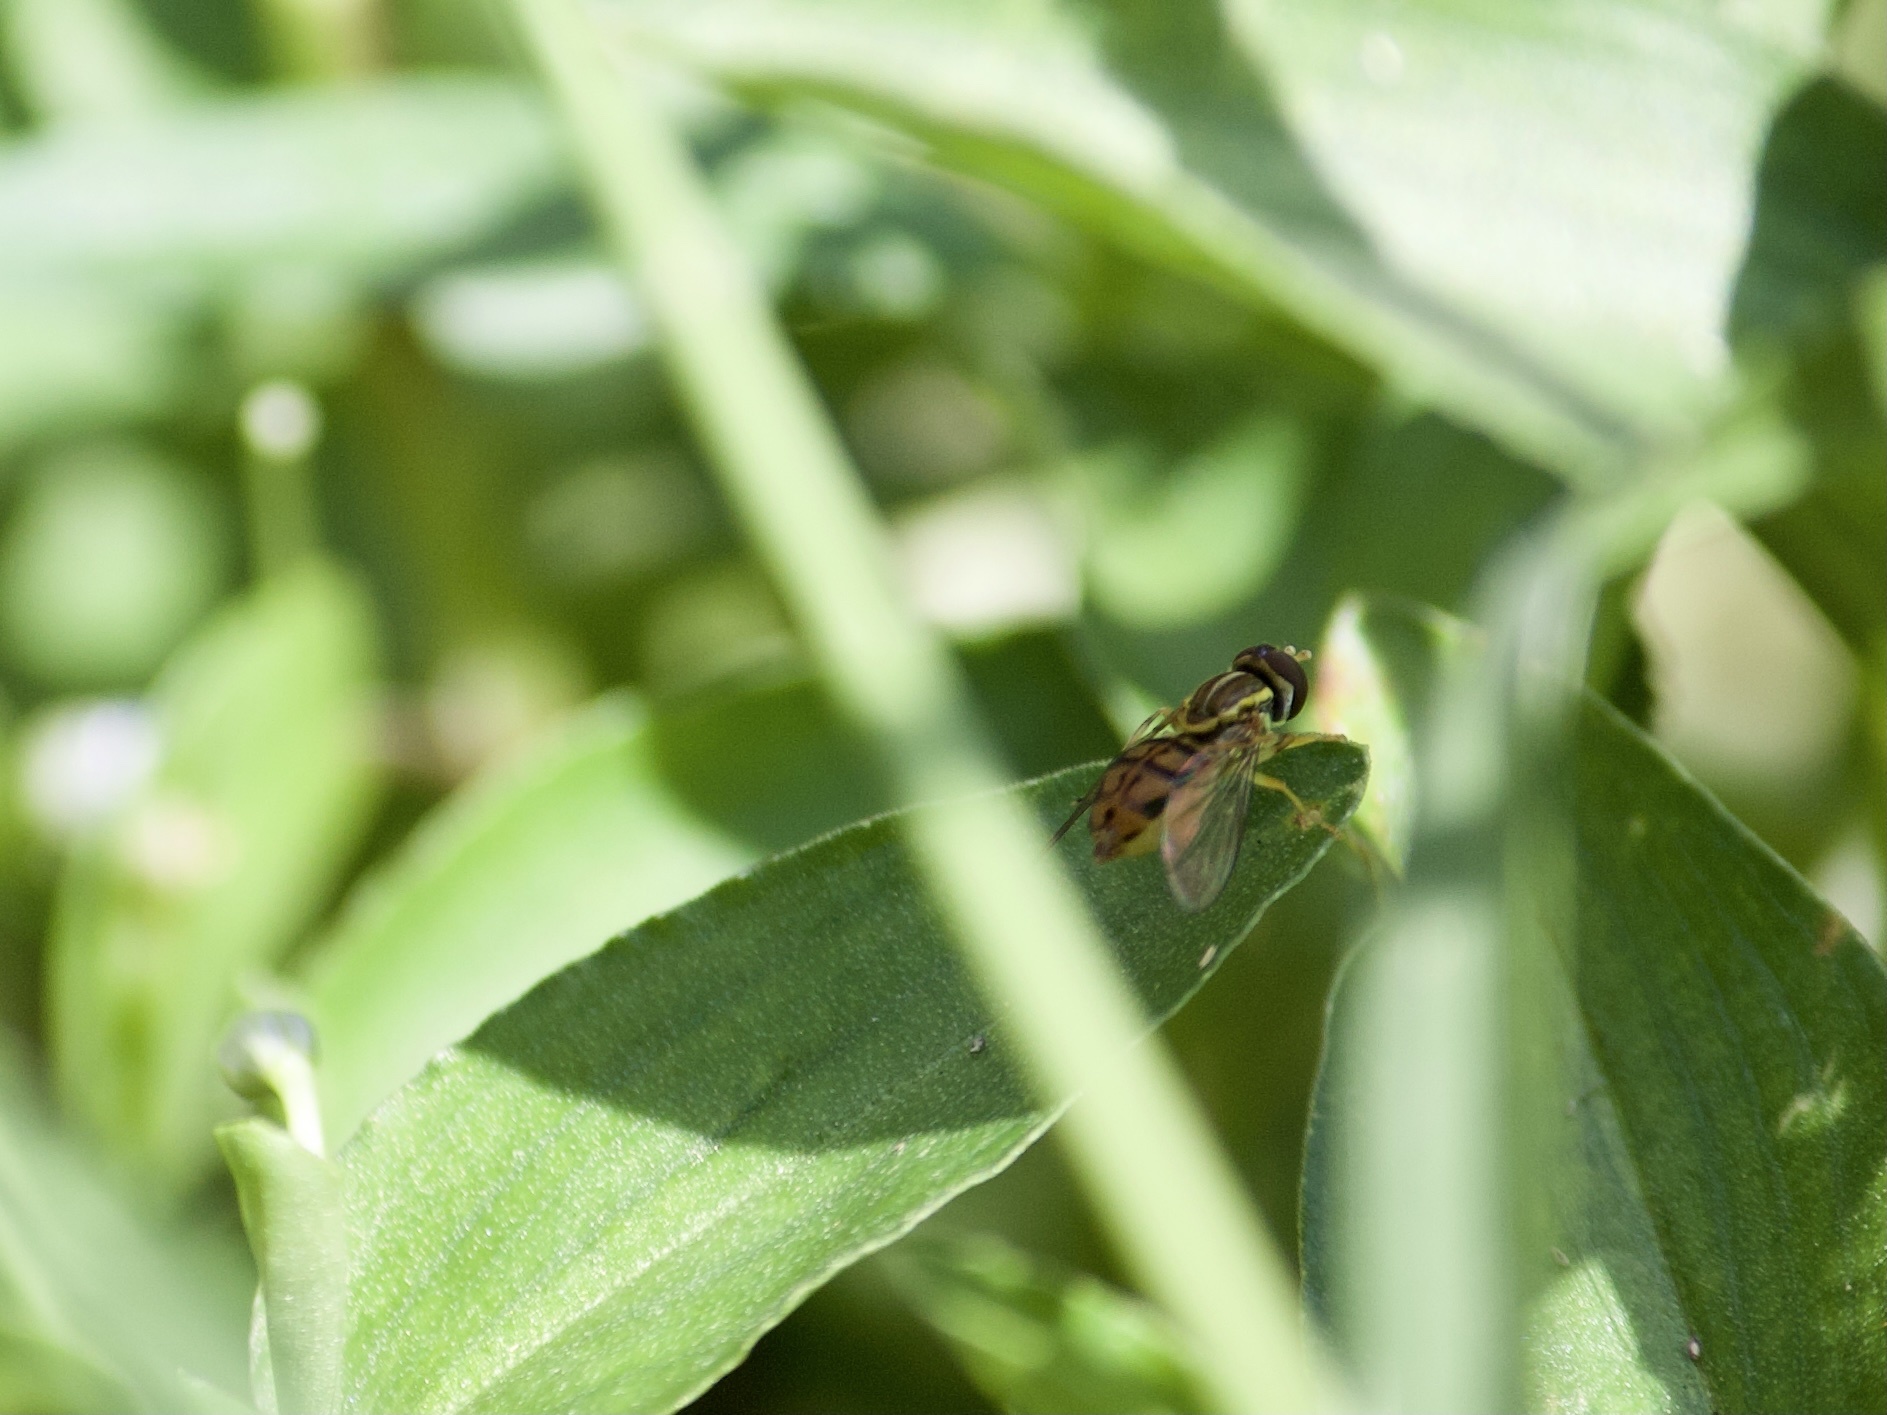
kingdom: Animalia
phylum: Arthropoda
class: Insecta
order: Diptera
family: Syrphidae
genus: Toxomerus
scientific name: Toxomerus floralis
